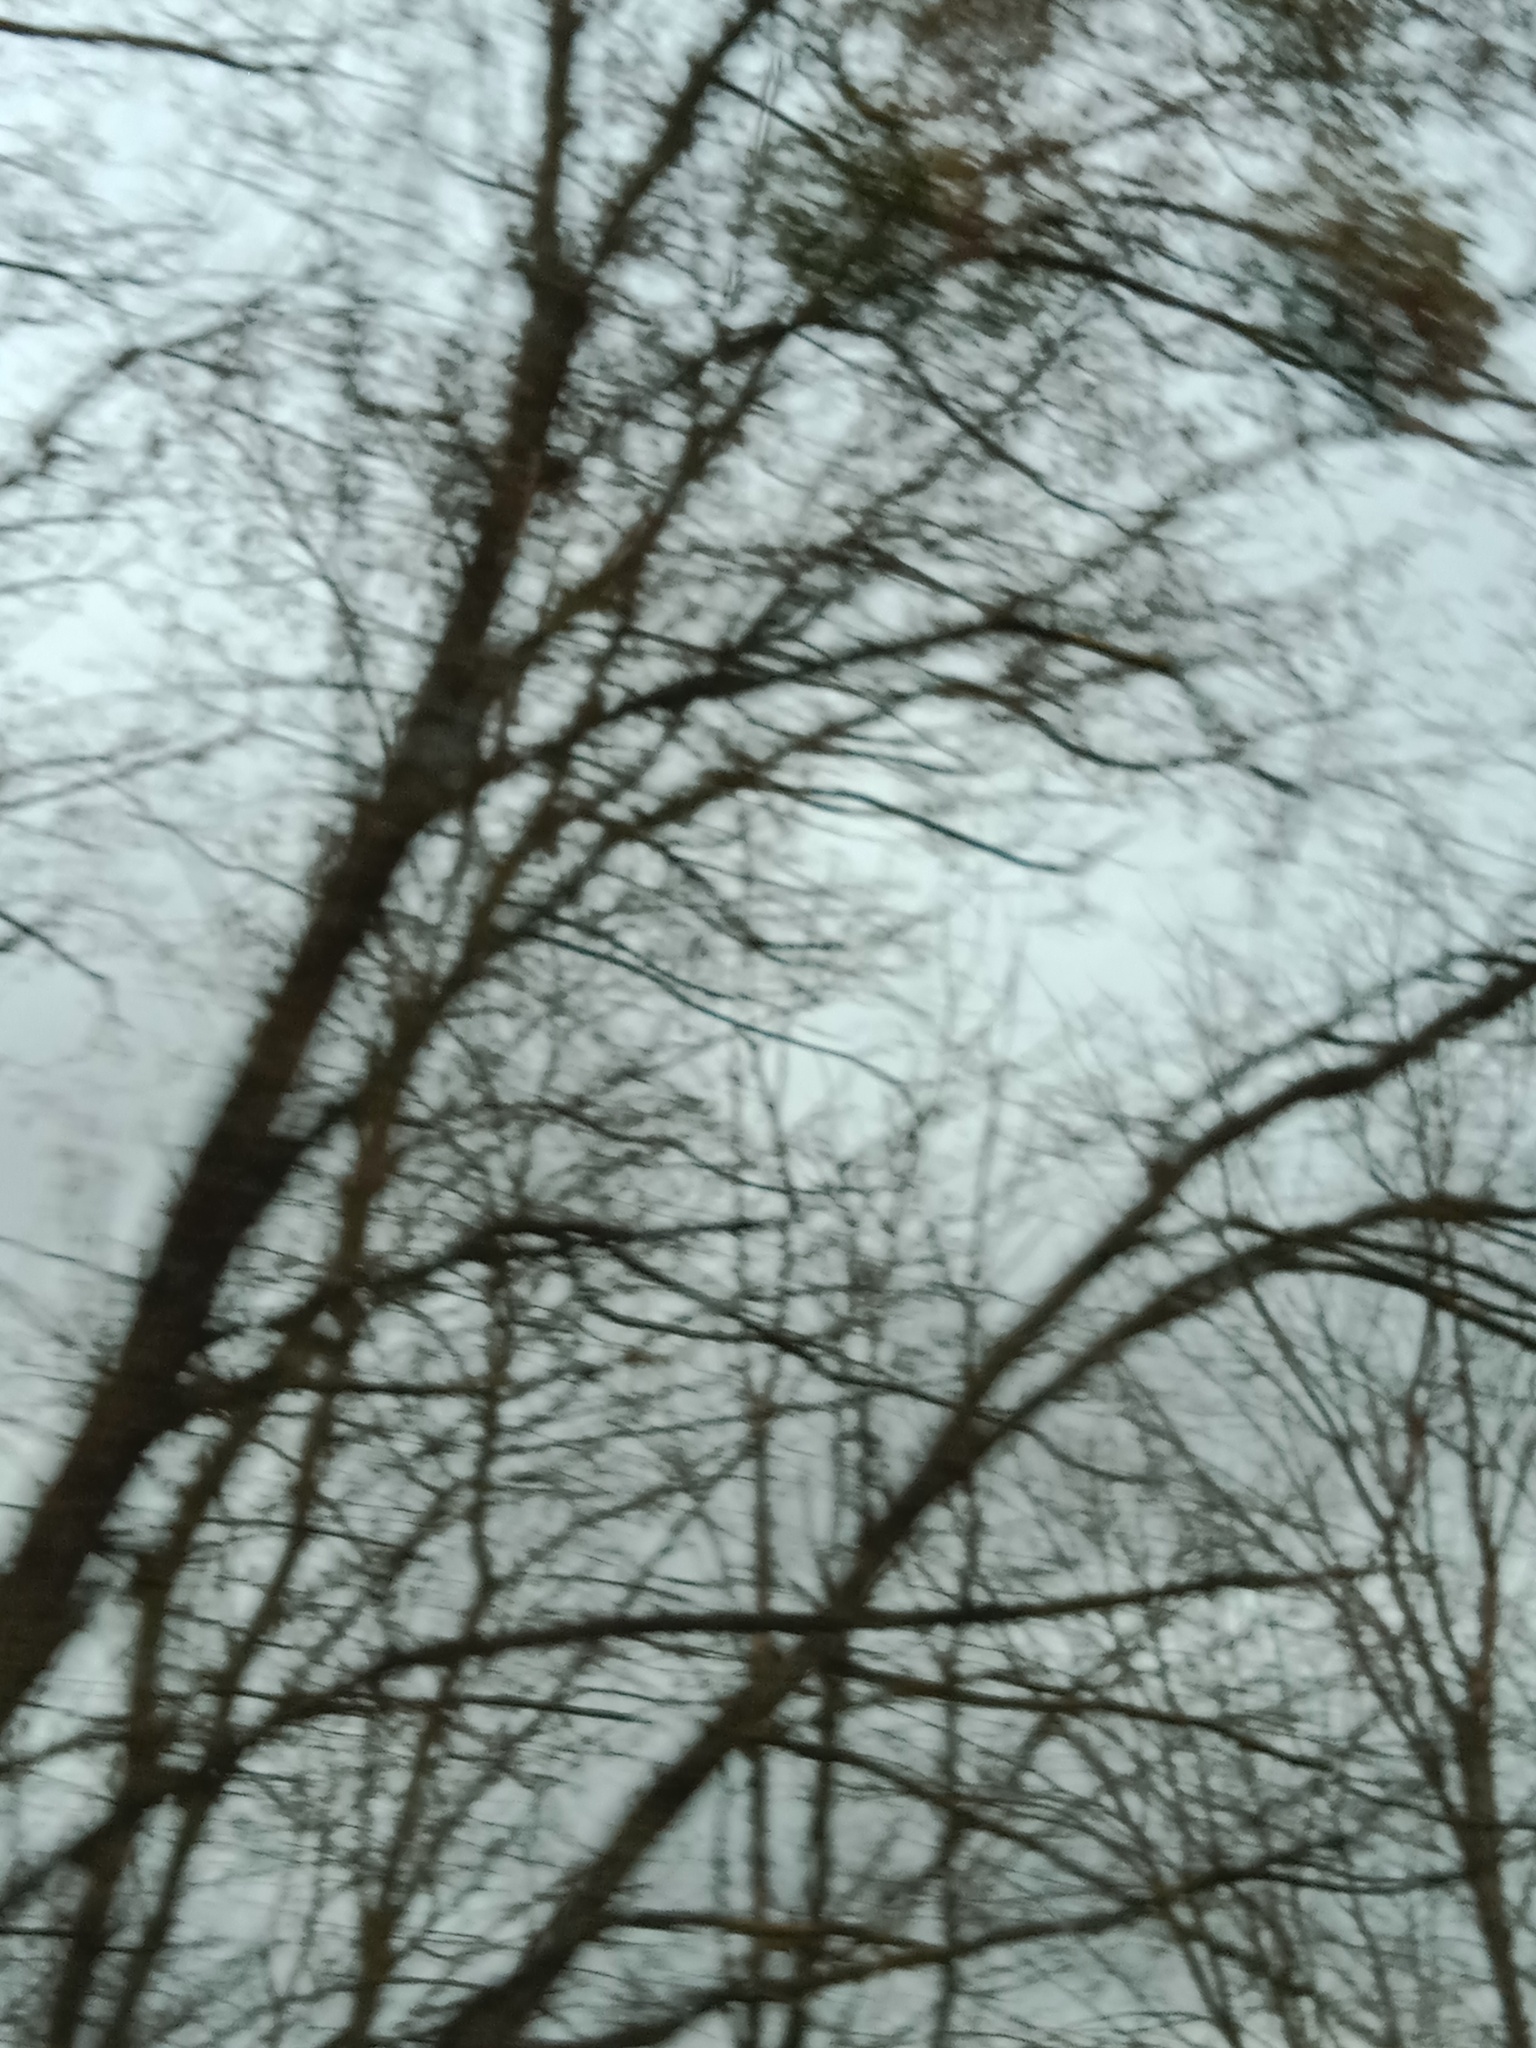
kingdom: Plantae
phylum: Tracheophyta
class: Magnoliopsida
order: Santalales
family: Viscaceae
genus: Viscum
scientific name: Viscum album
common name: Mistletoe
